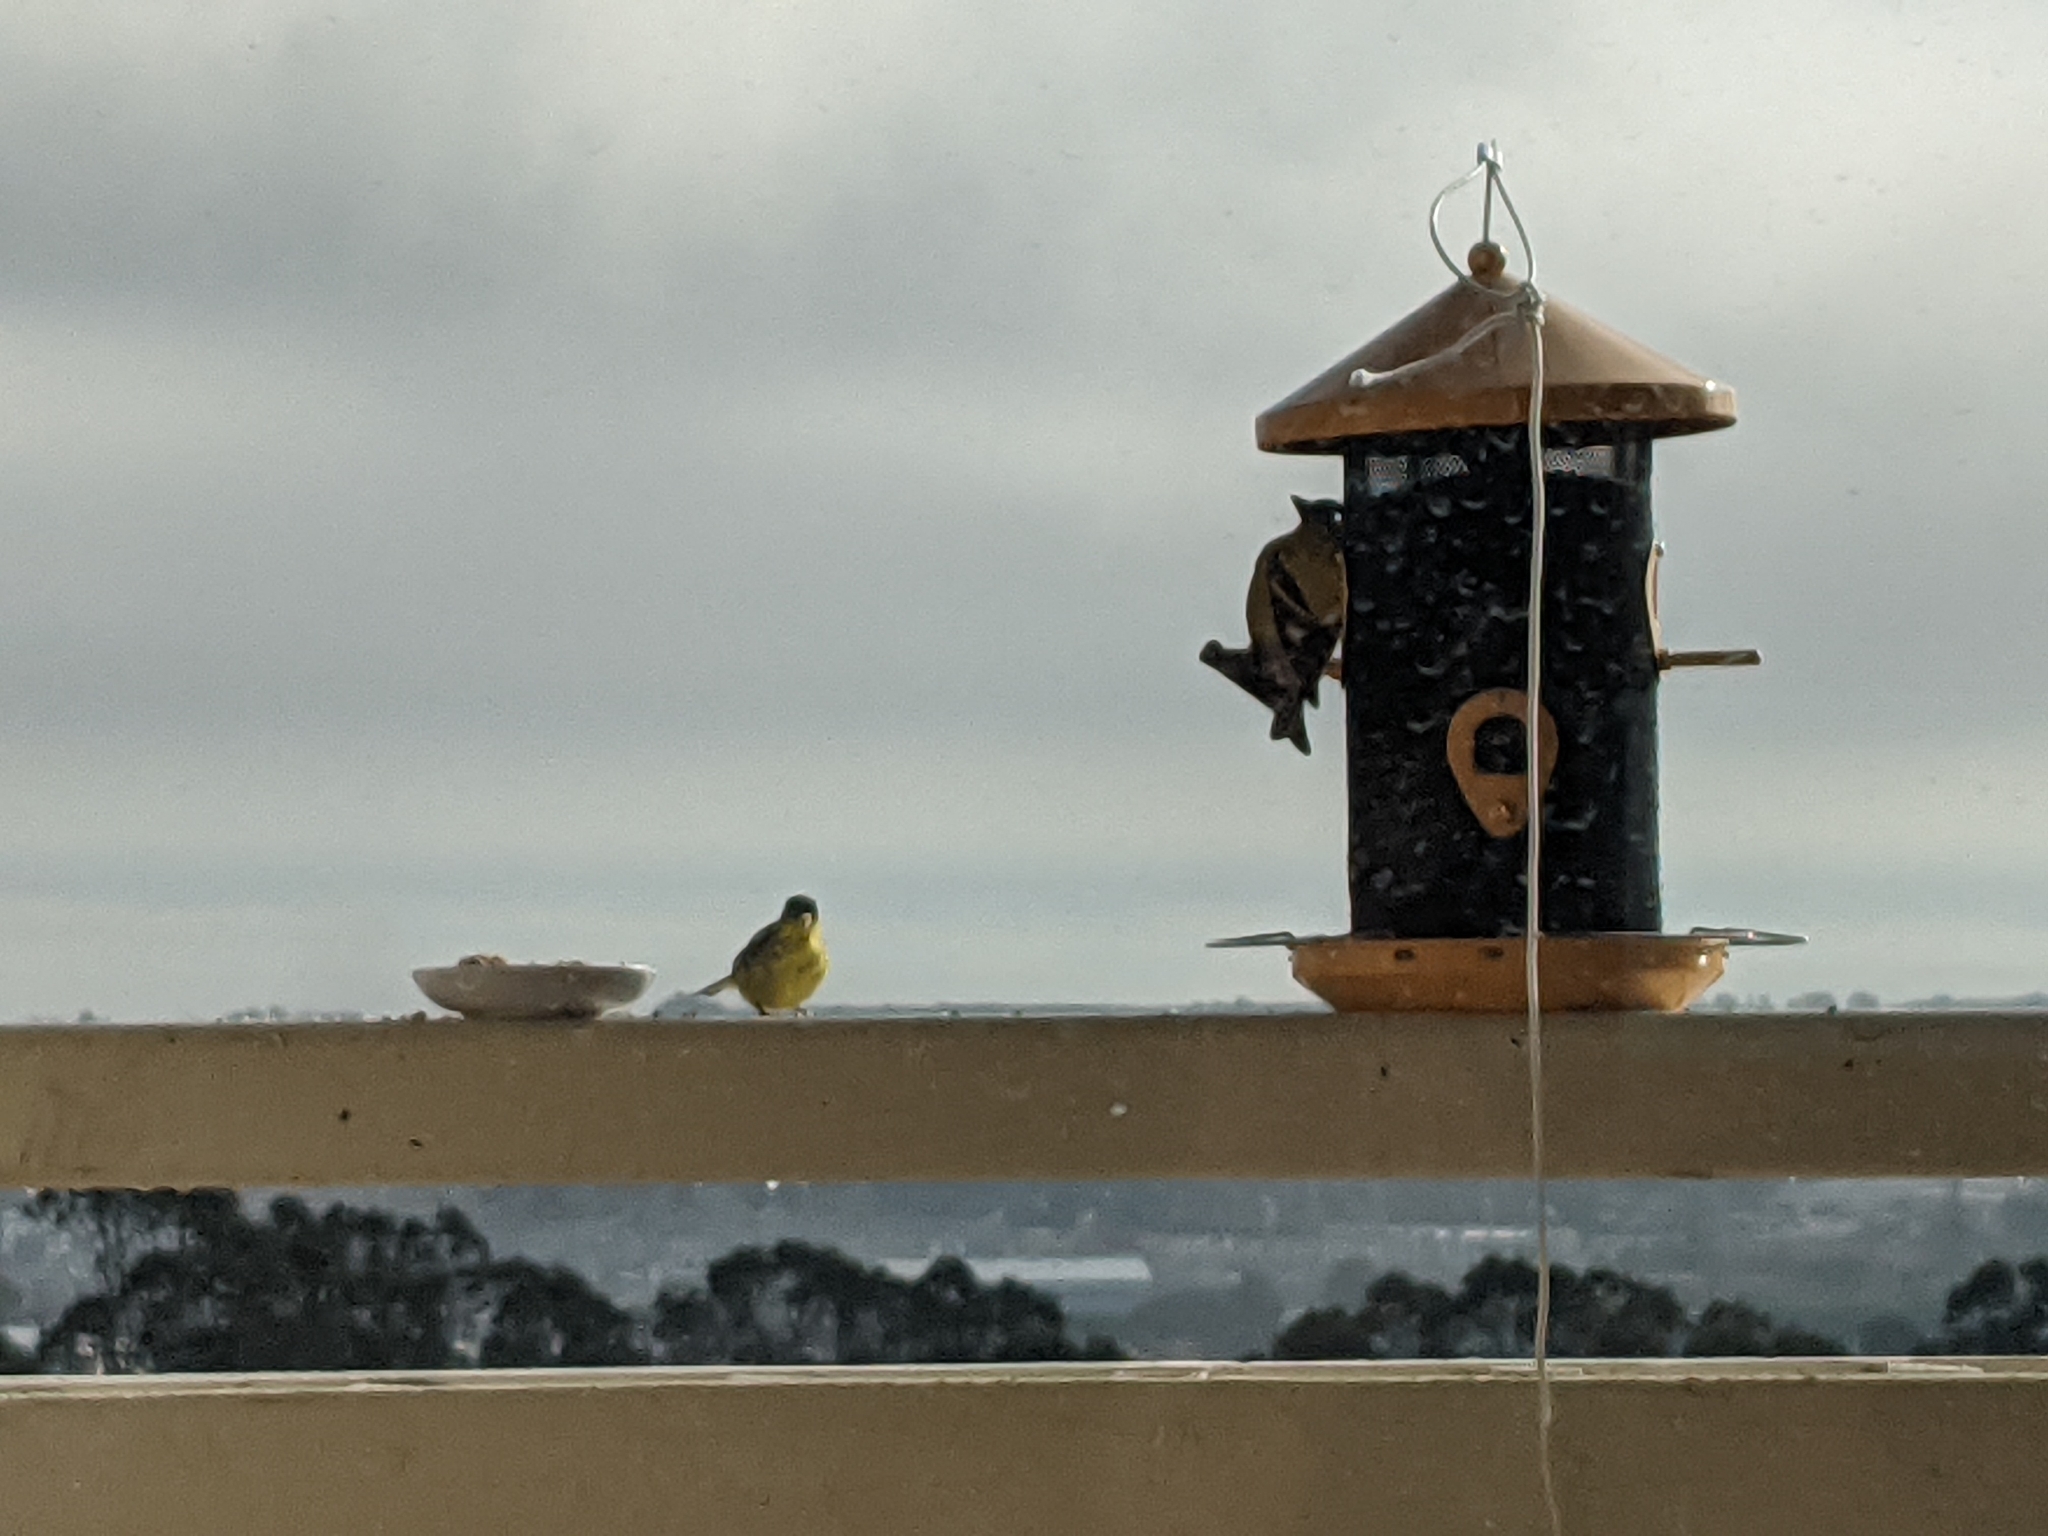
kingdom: Animalia
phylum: Chordata
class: Aves
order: Passeriformes
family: Fringillidae
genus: Spinus
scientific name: Spinus psaltria
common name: Lesser goldfinch
